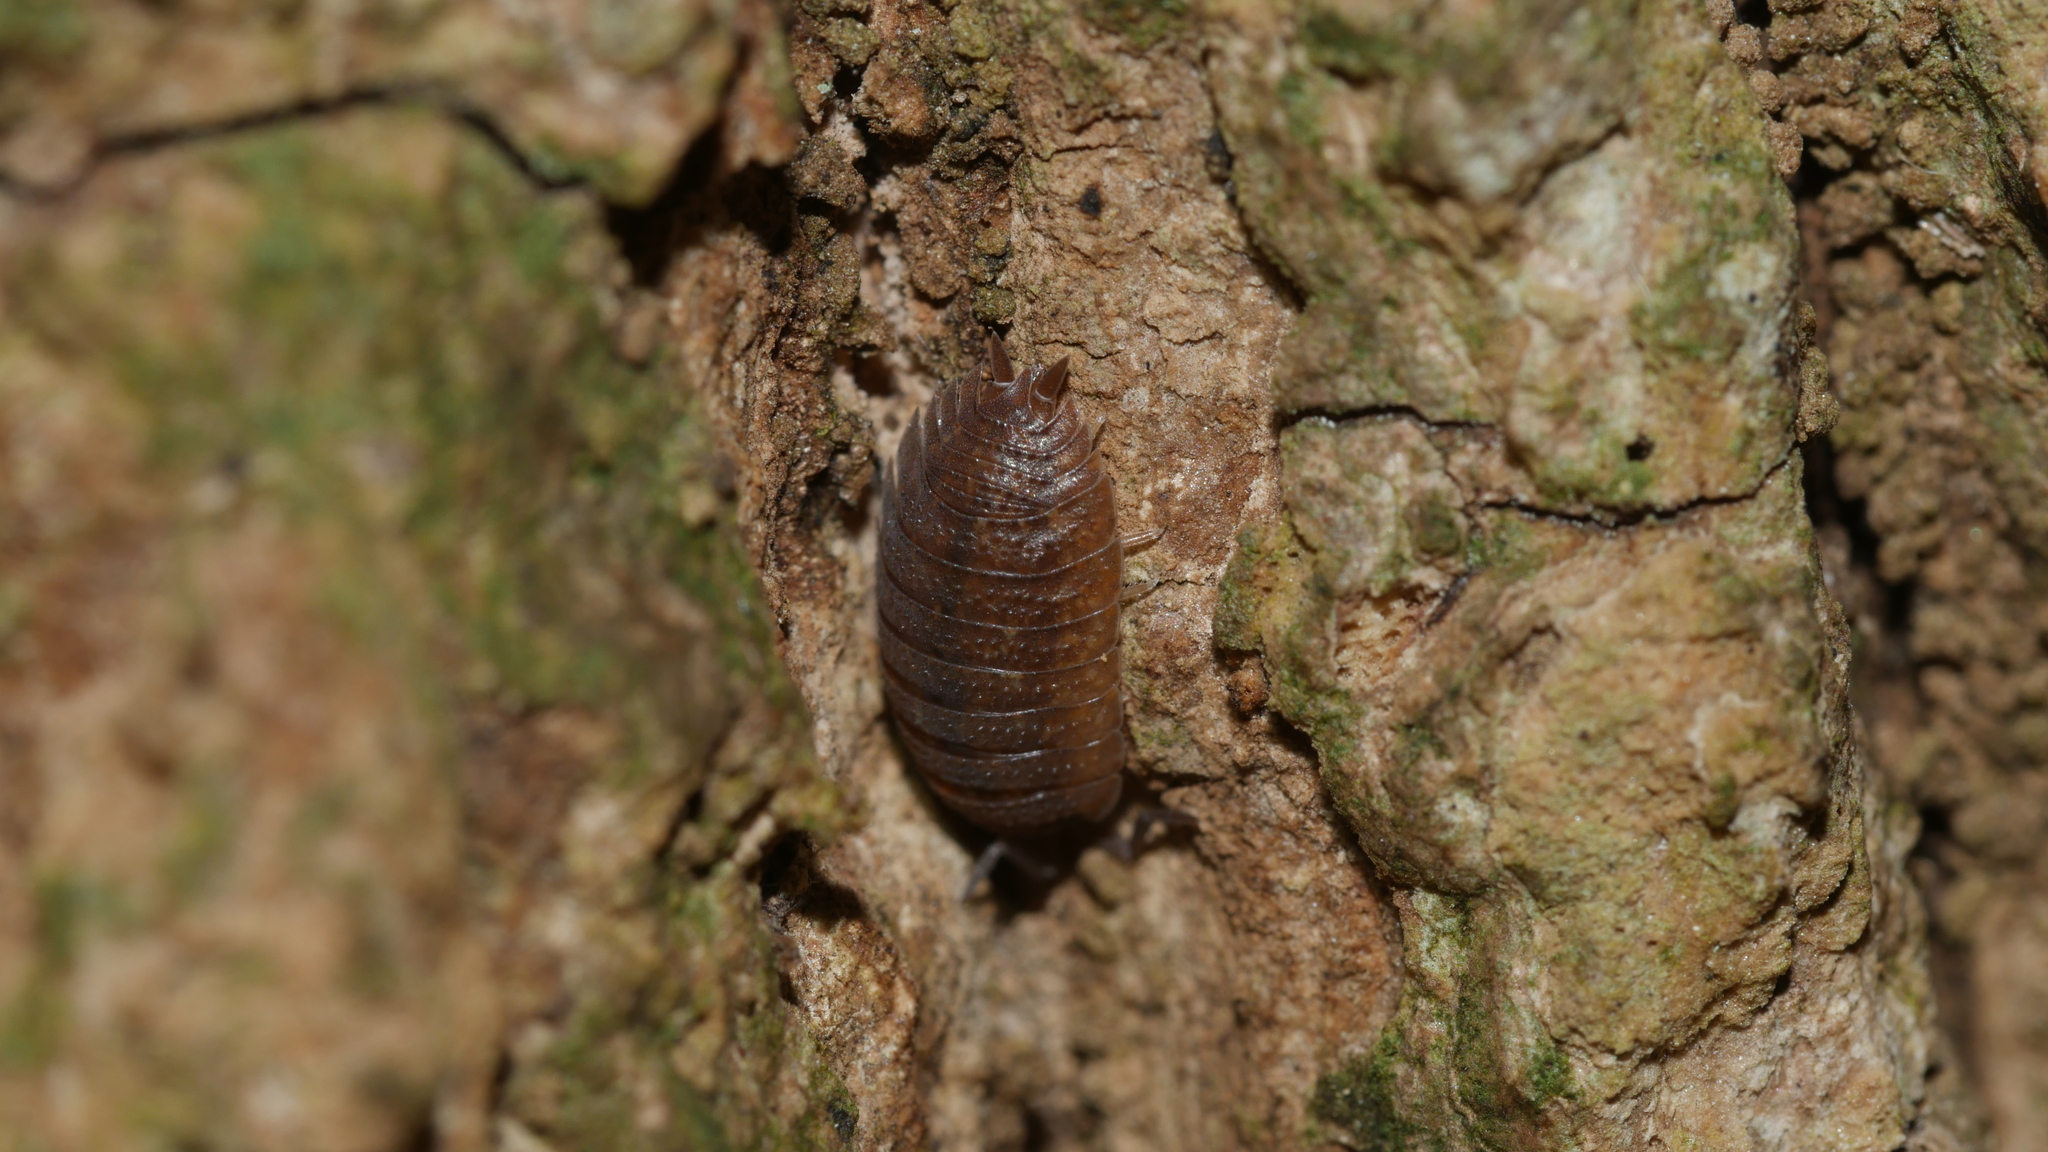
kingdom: Animalia
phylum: Arthropoda
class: Malacostraca
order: Isopoda
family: Porcellionidae
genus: Porcellio
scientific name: Porcellio scaber
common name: Common rough woodlouse
